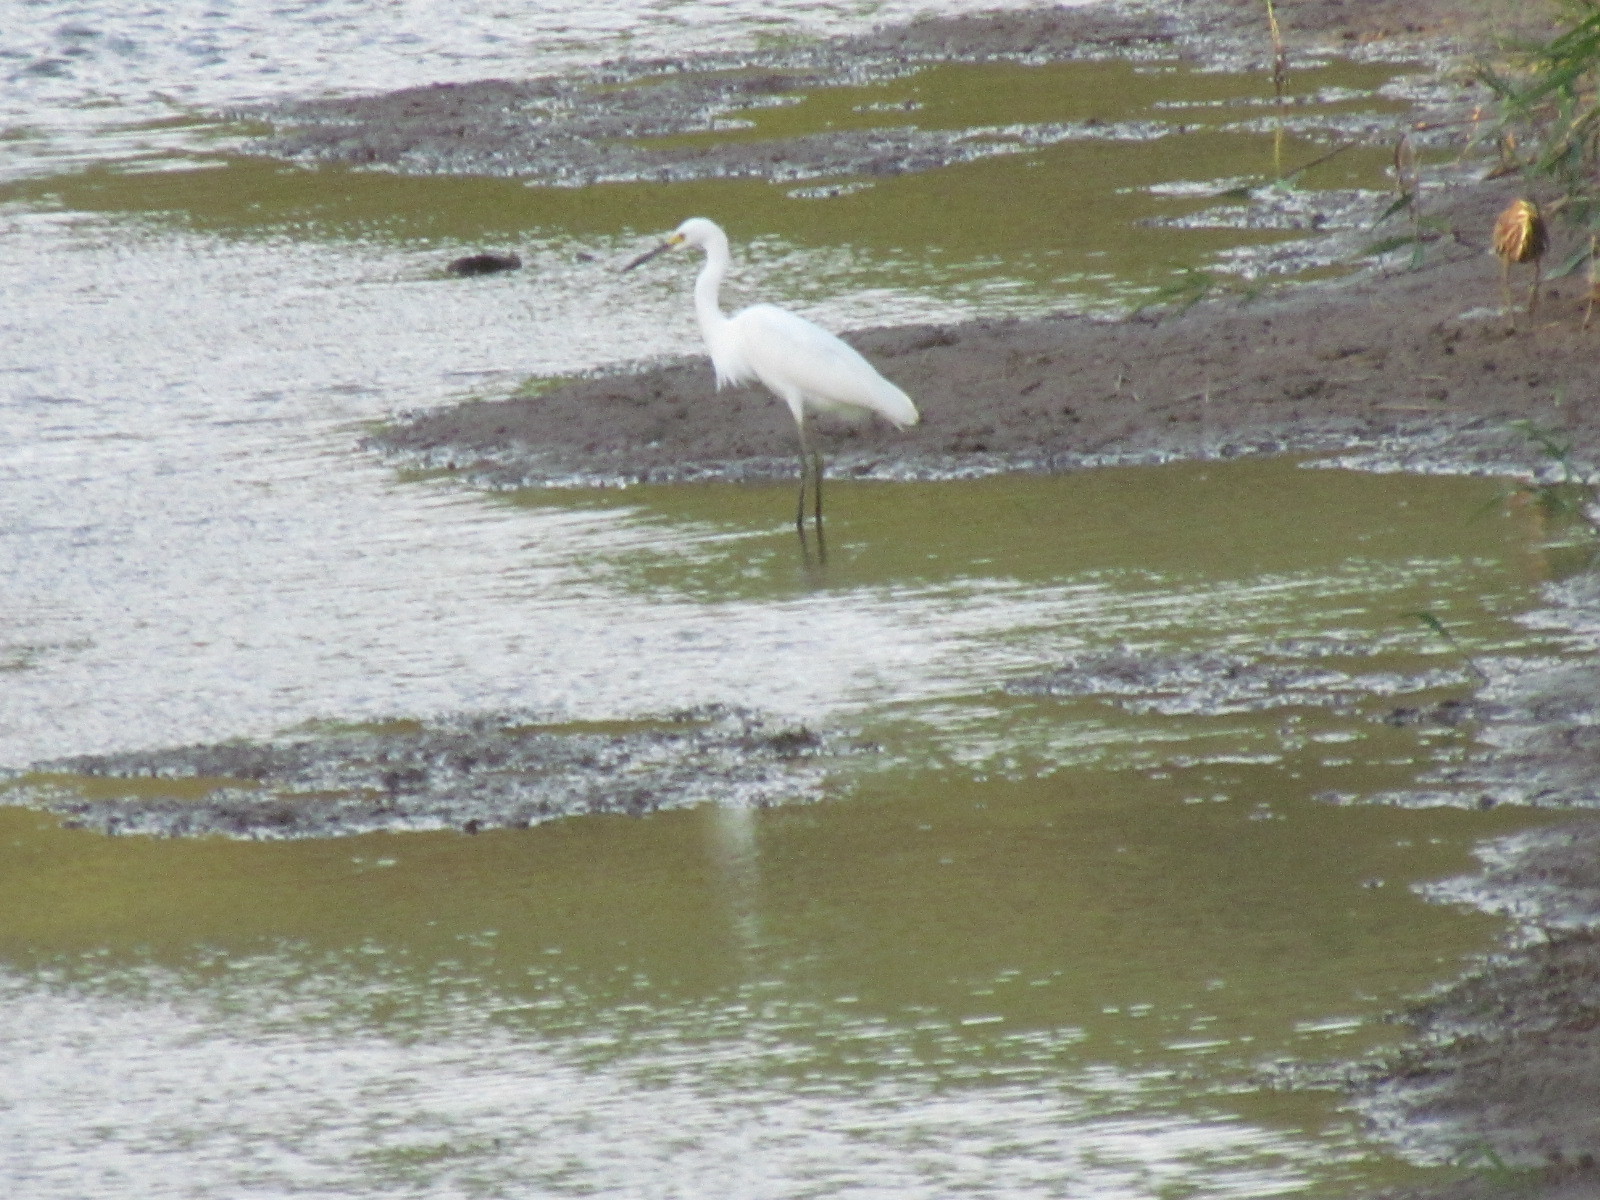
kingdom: Animalia
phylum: Chordata
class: Aves
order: Pelecaniformes
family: Ardeidae
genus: Egretta
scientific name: Egretta thula
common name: Snowy egret
